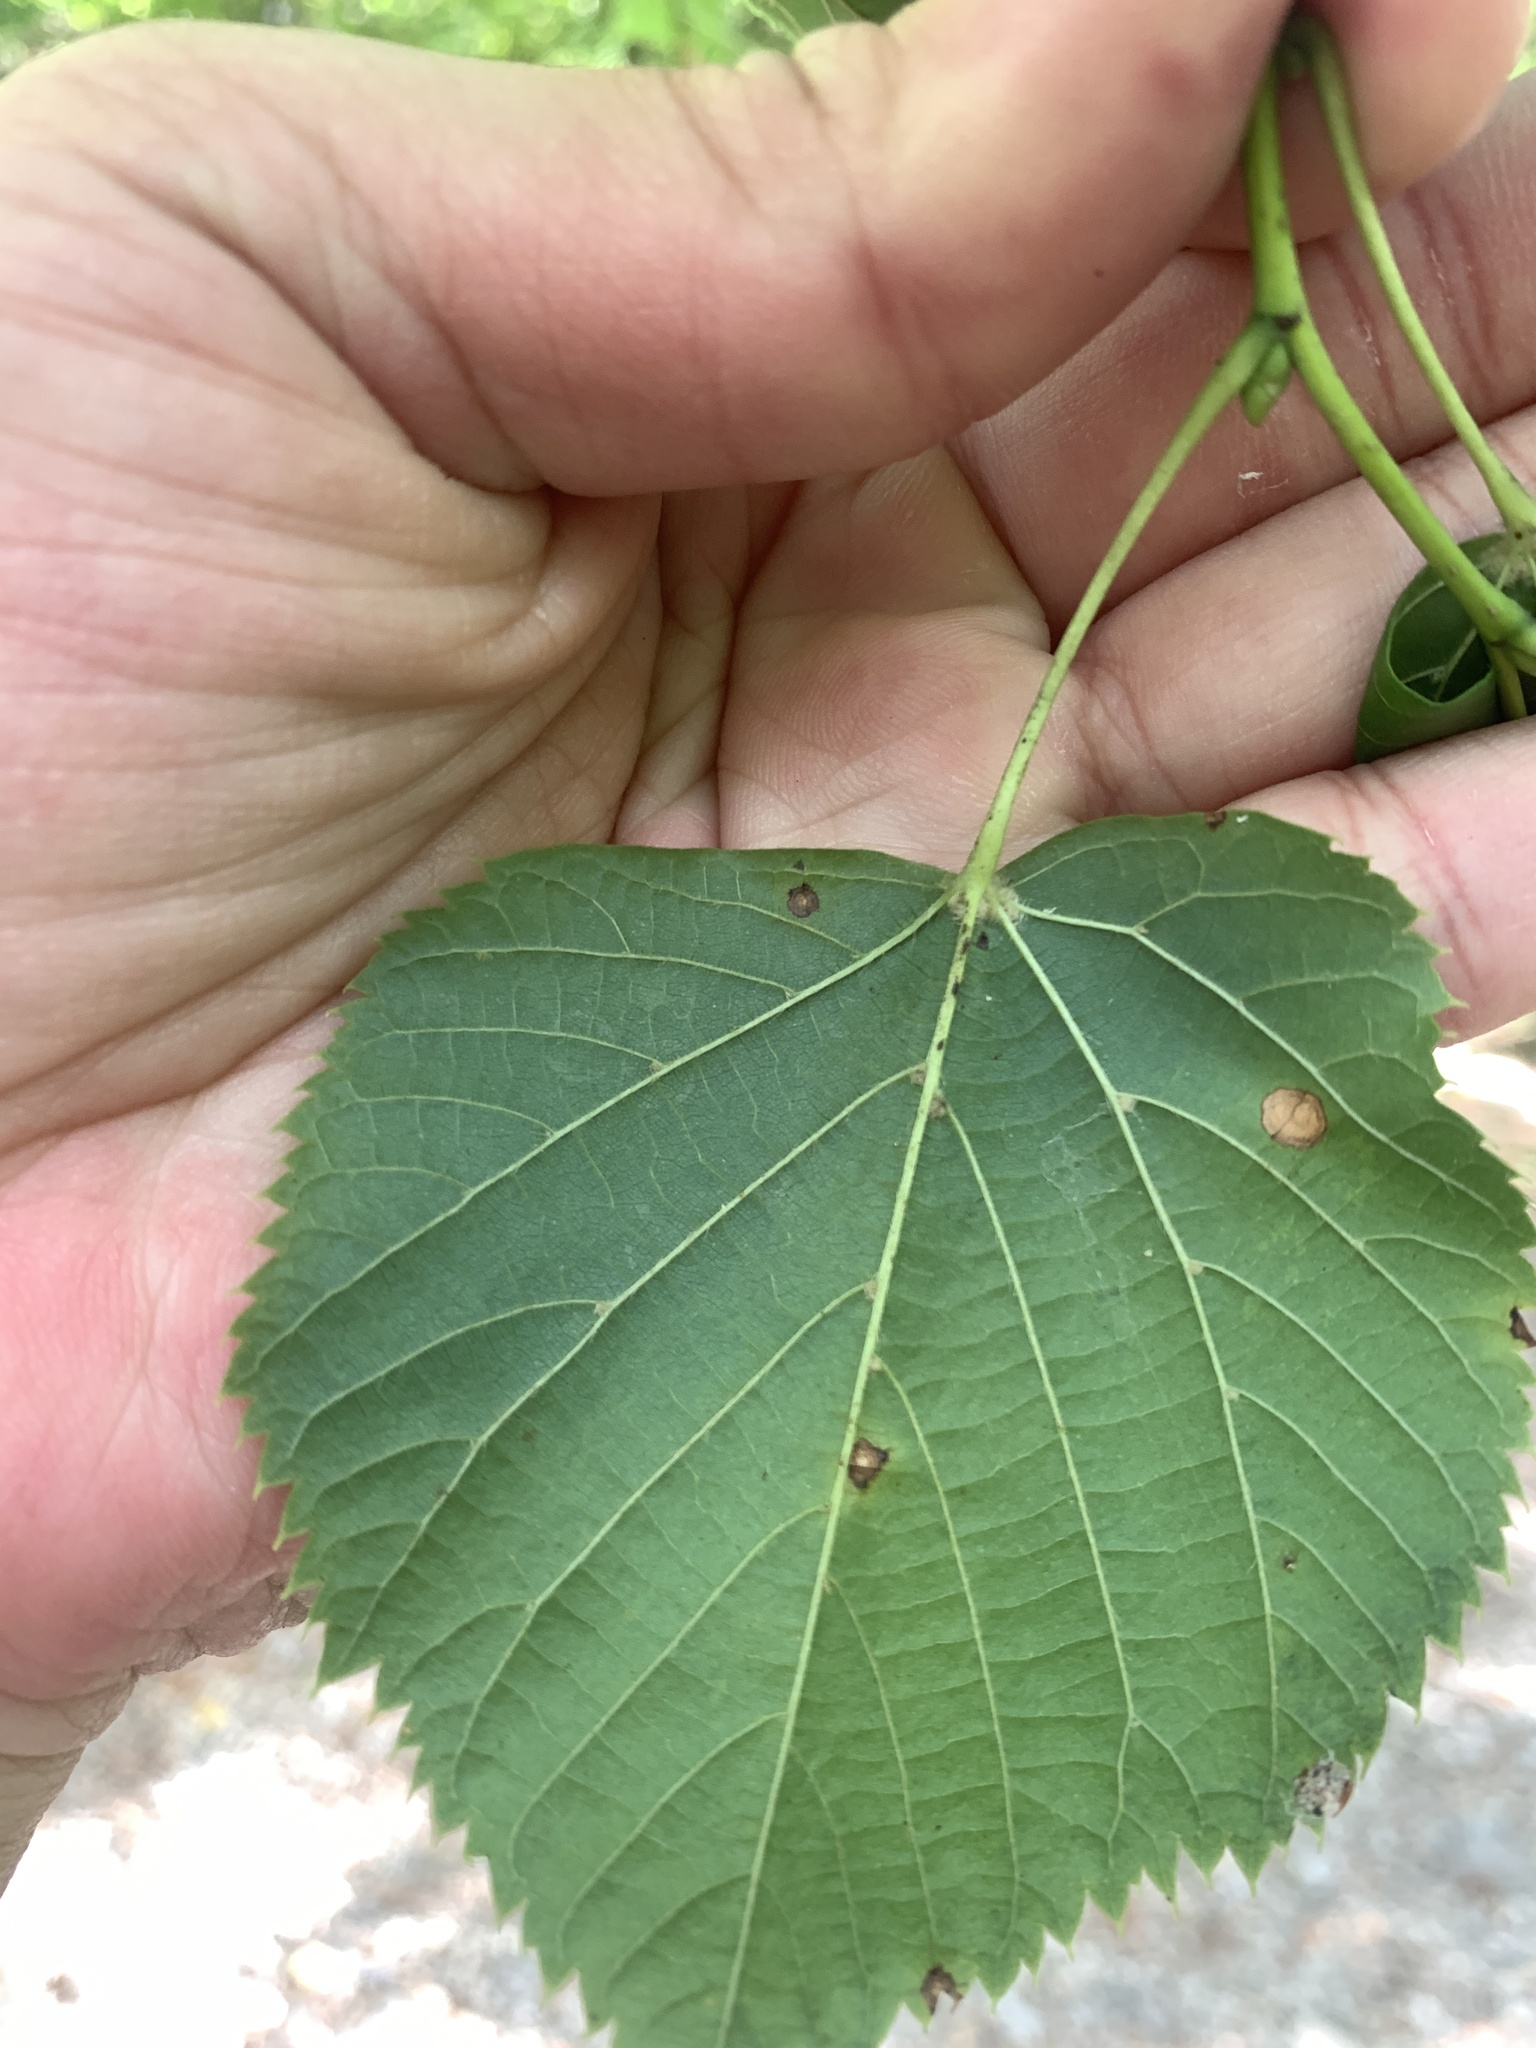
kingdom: Plantae
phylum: Tracheophyta
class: Magnoliopsida
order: Malvales
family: Malvaceae
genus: Tilia
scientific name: Tilia cordata
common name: Small-leaved lime
